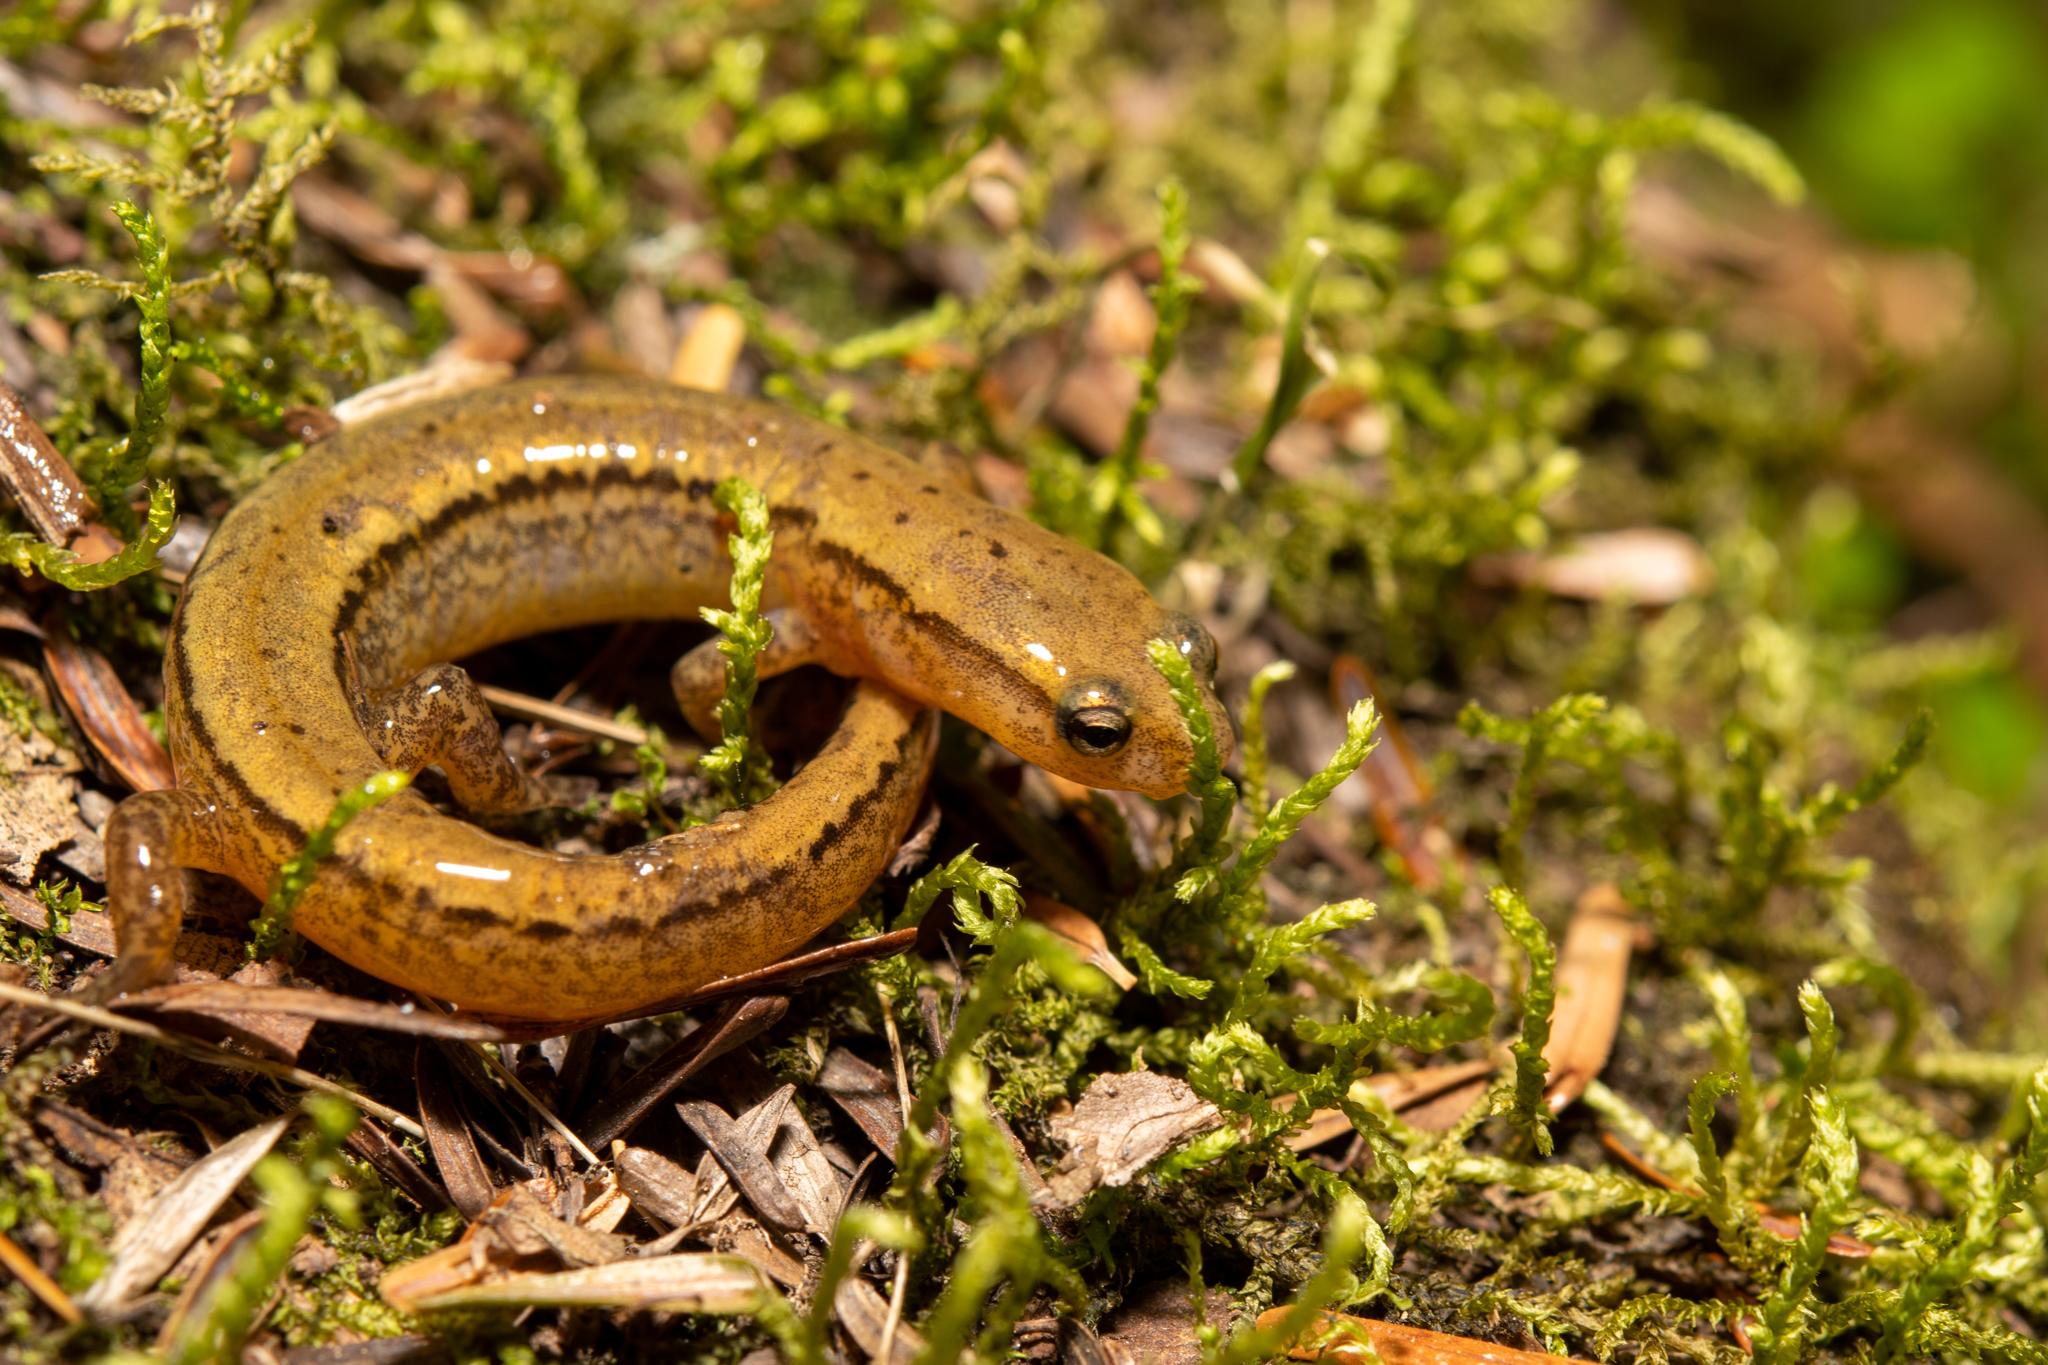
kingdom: Animalia
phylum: Chordata
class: Amphibia
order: Caudata
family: Plethodontidae
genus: Eurycea
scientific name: Eurycea bislineata
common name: Northern two-lined salamander
